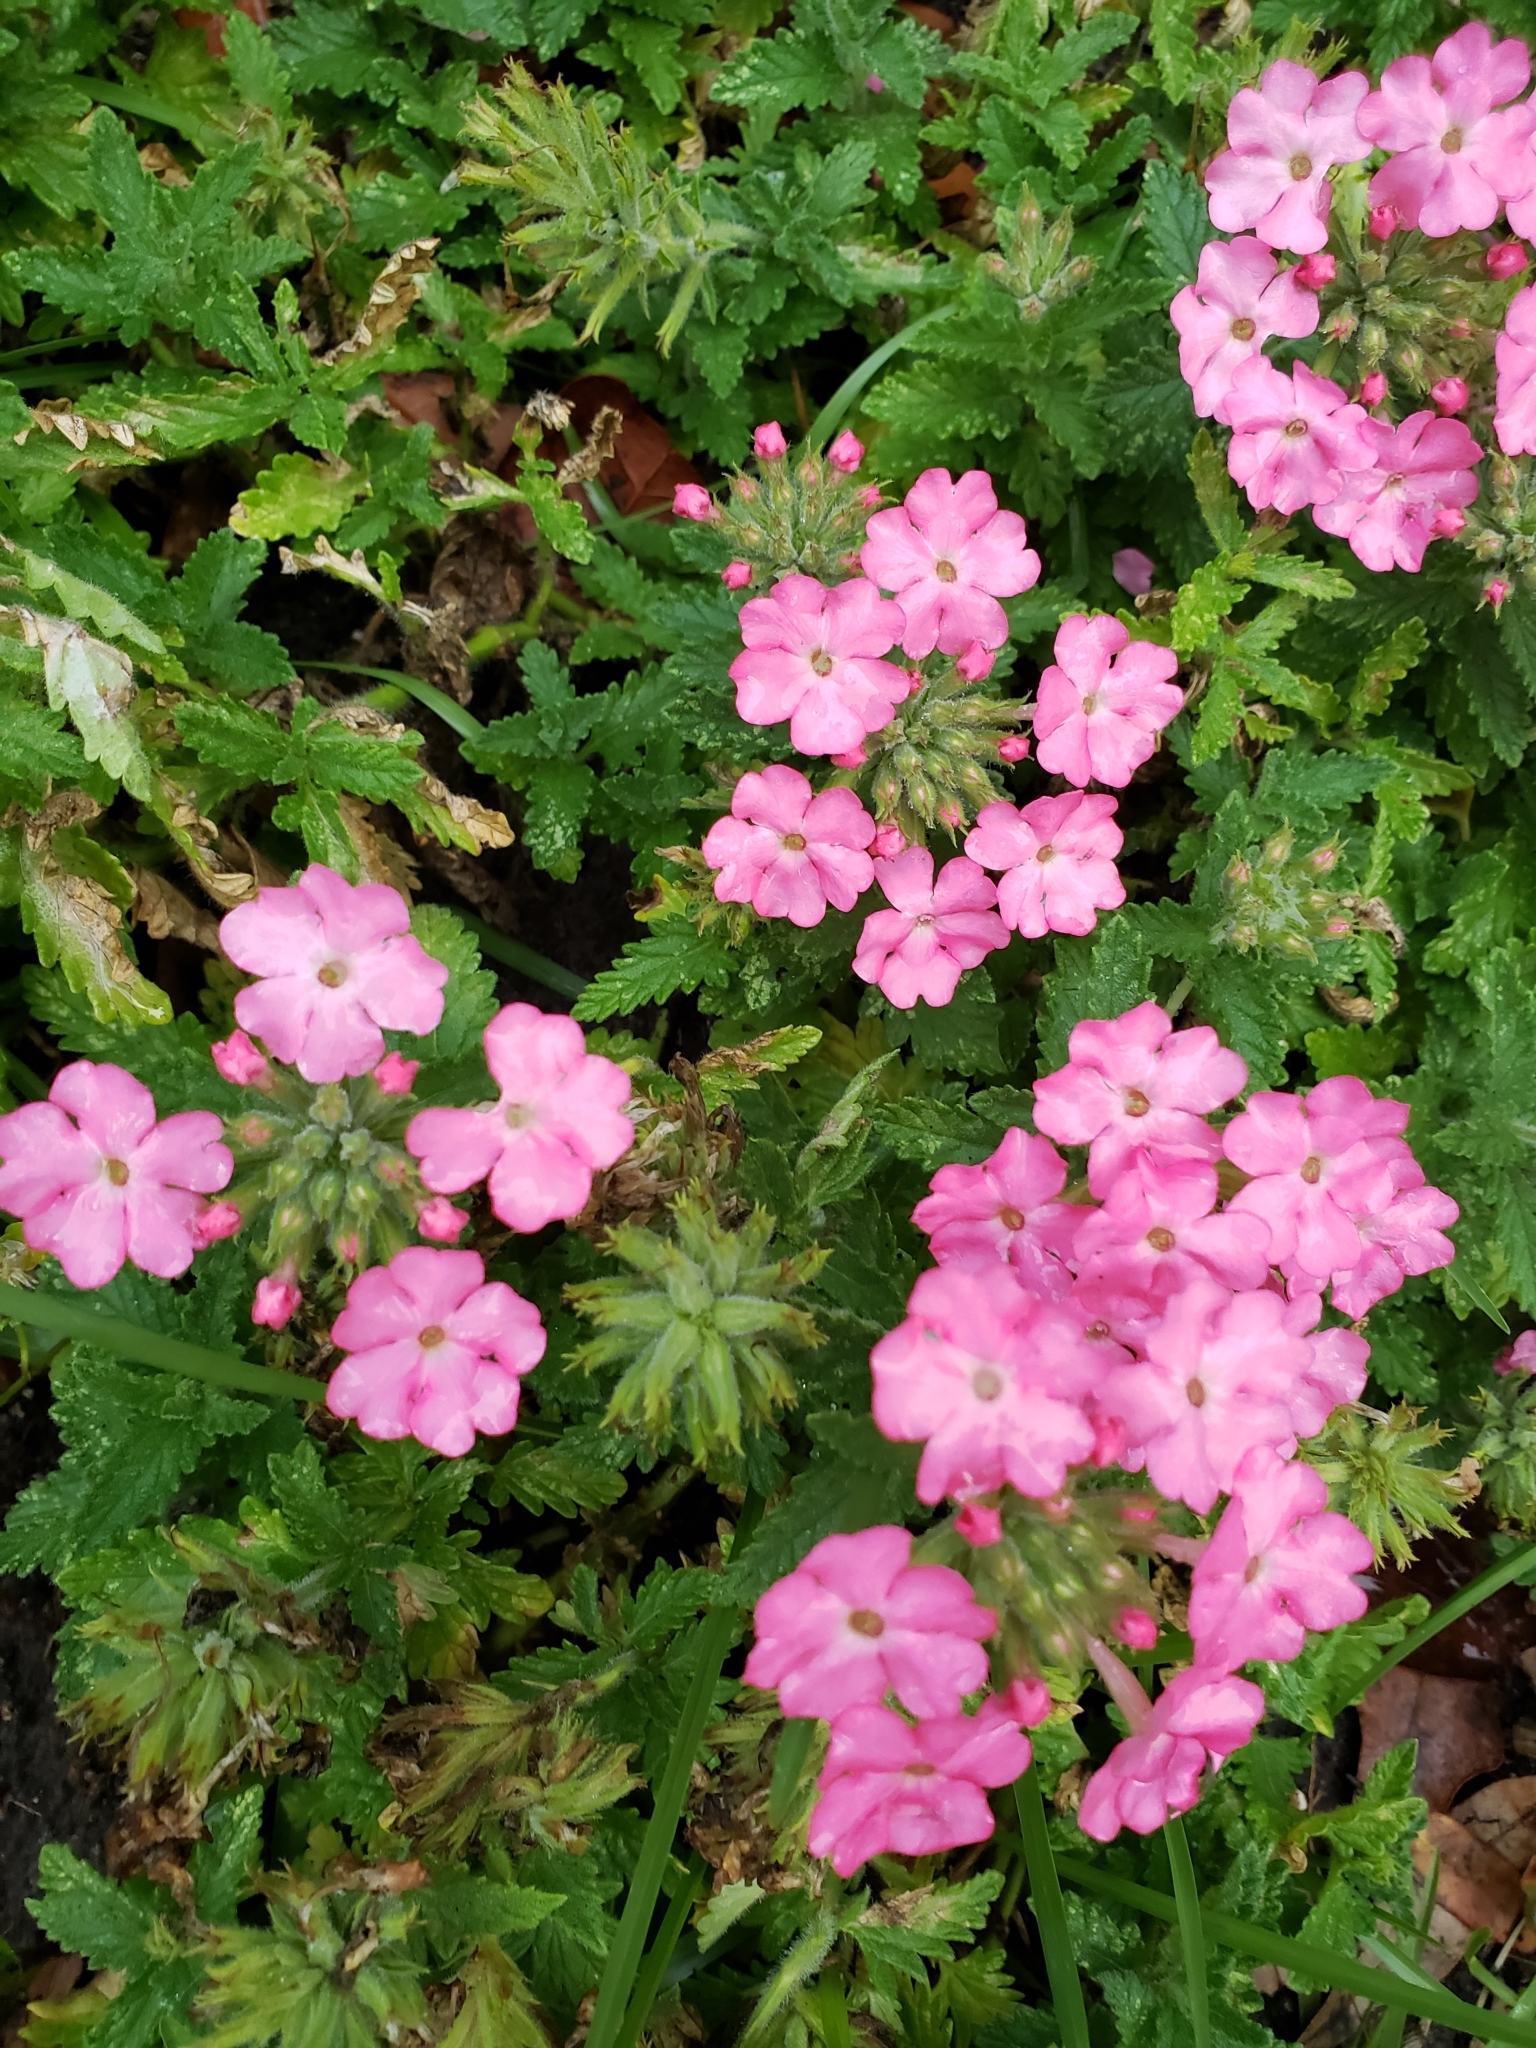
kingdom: Plantae
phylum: Tracheophyta
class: Magnoliopsida
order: Lamiales
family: Verbenaceae
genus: Verbena
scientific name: Verbena hybrida
